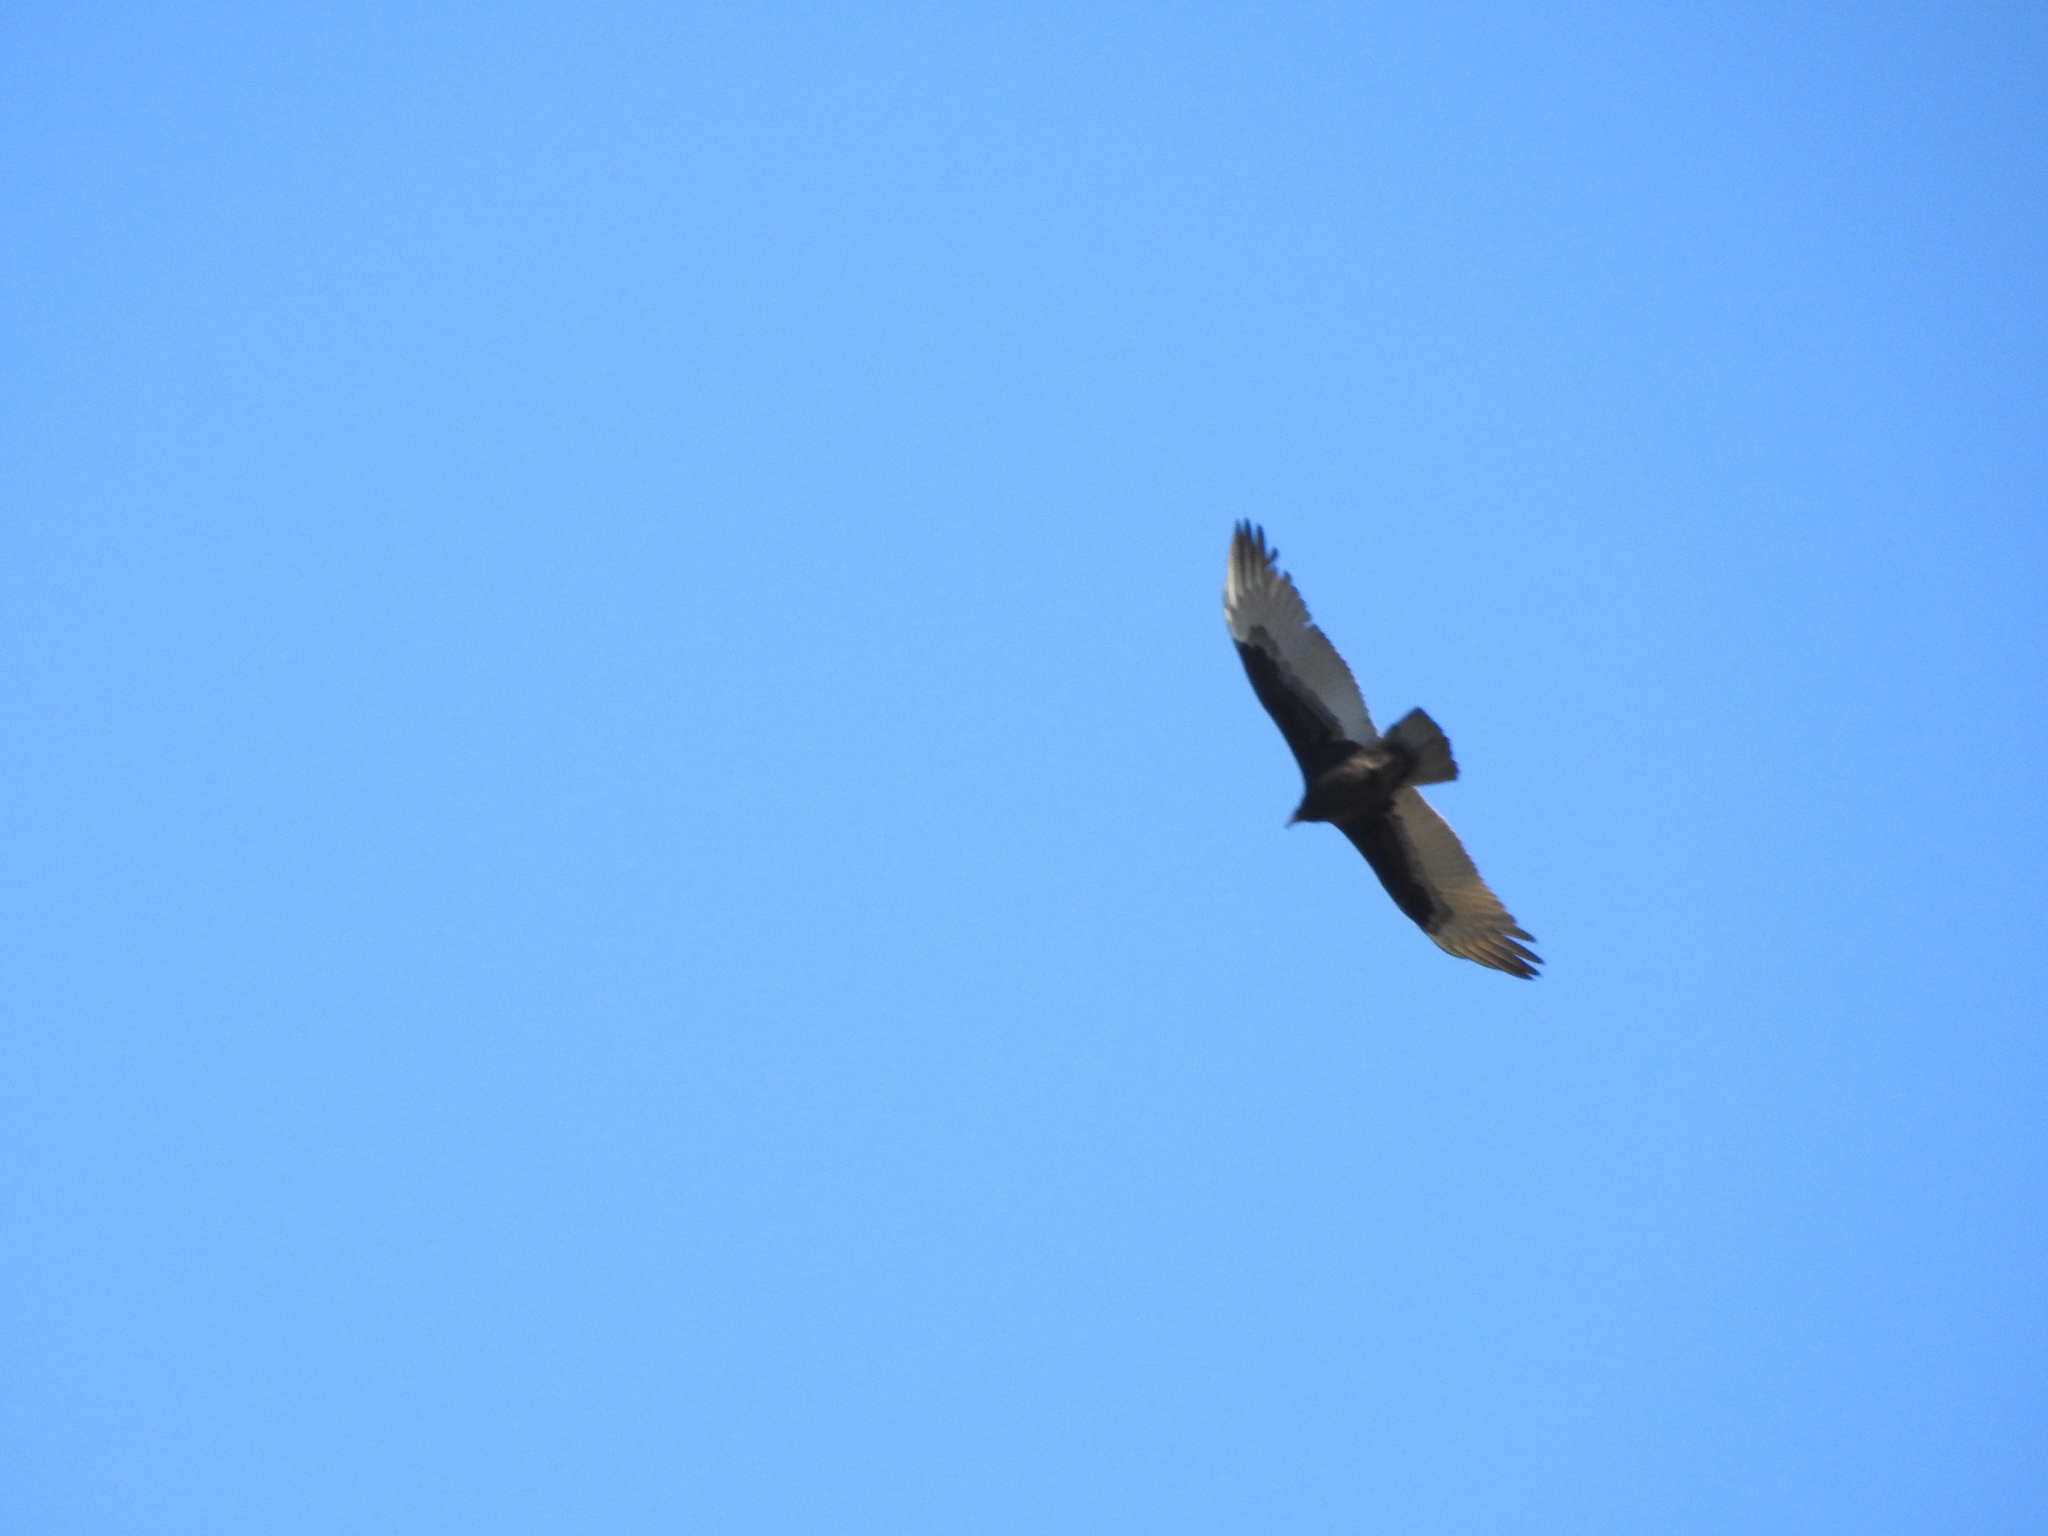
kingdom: Animalia
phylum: Chordata
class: Aves
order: Accipitriformes
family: Cathartidae
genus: Cathartes
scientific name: Cathartes aura
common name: Turkey vulture
